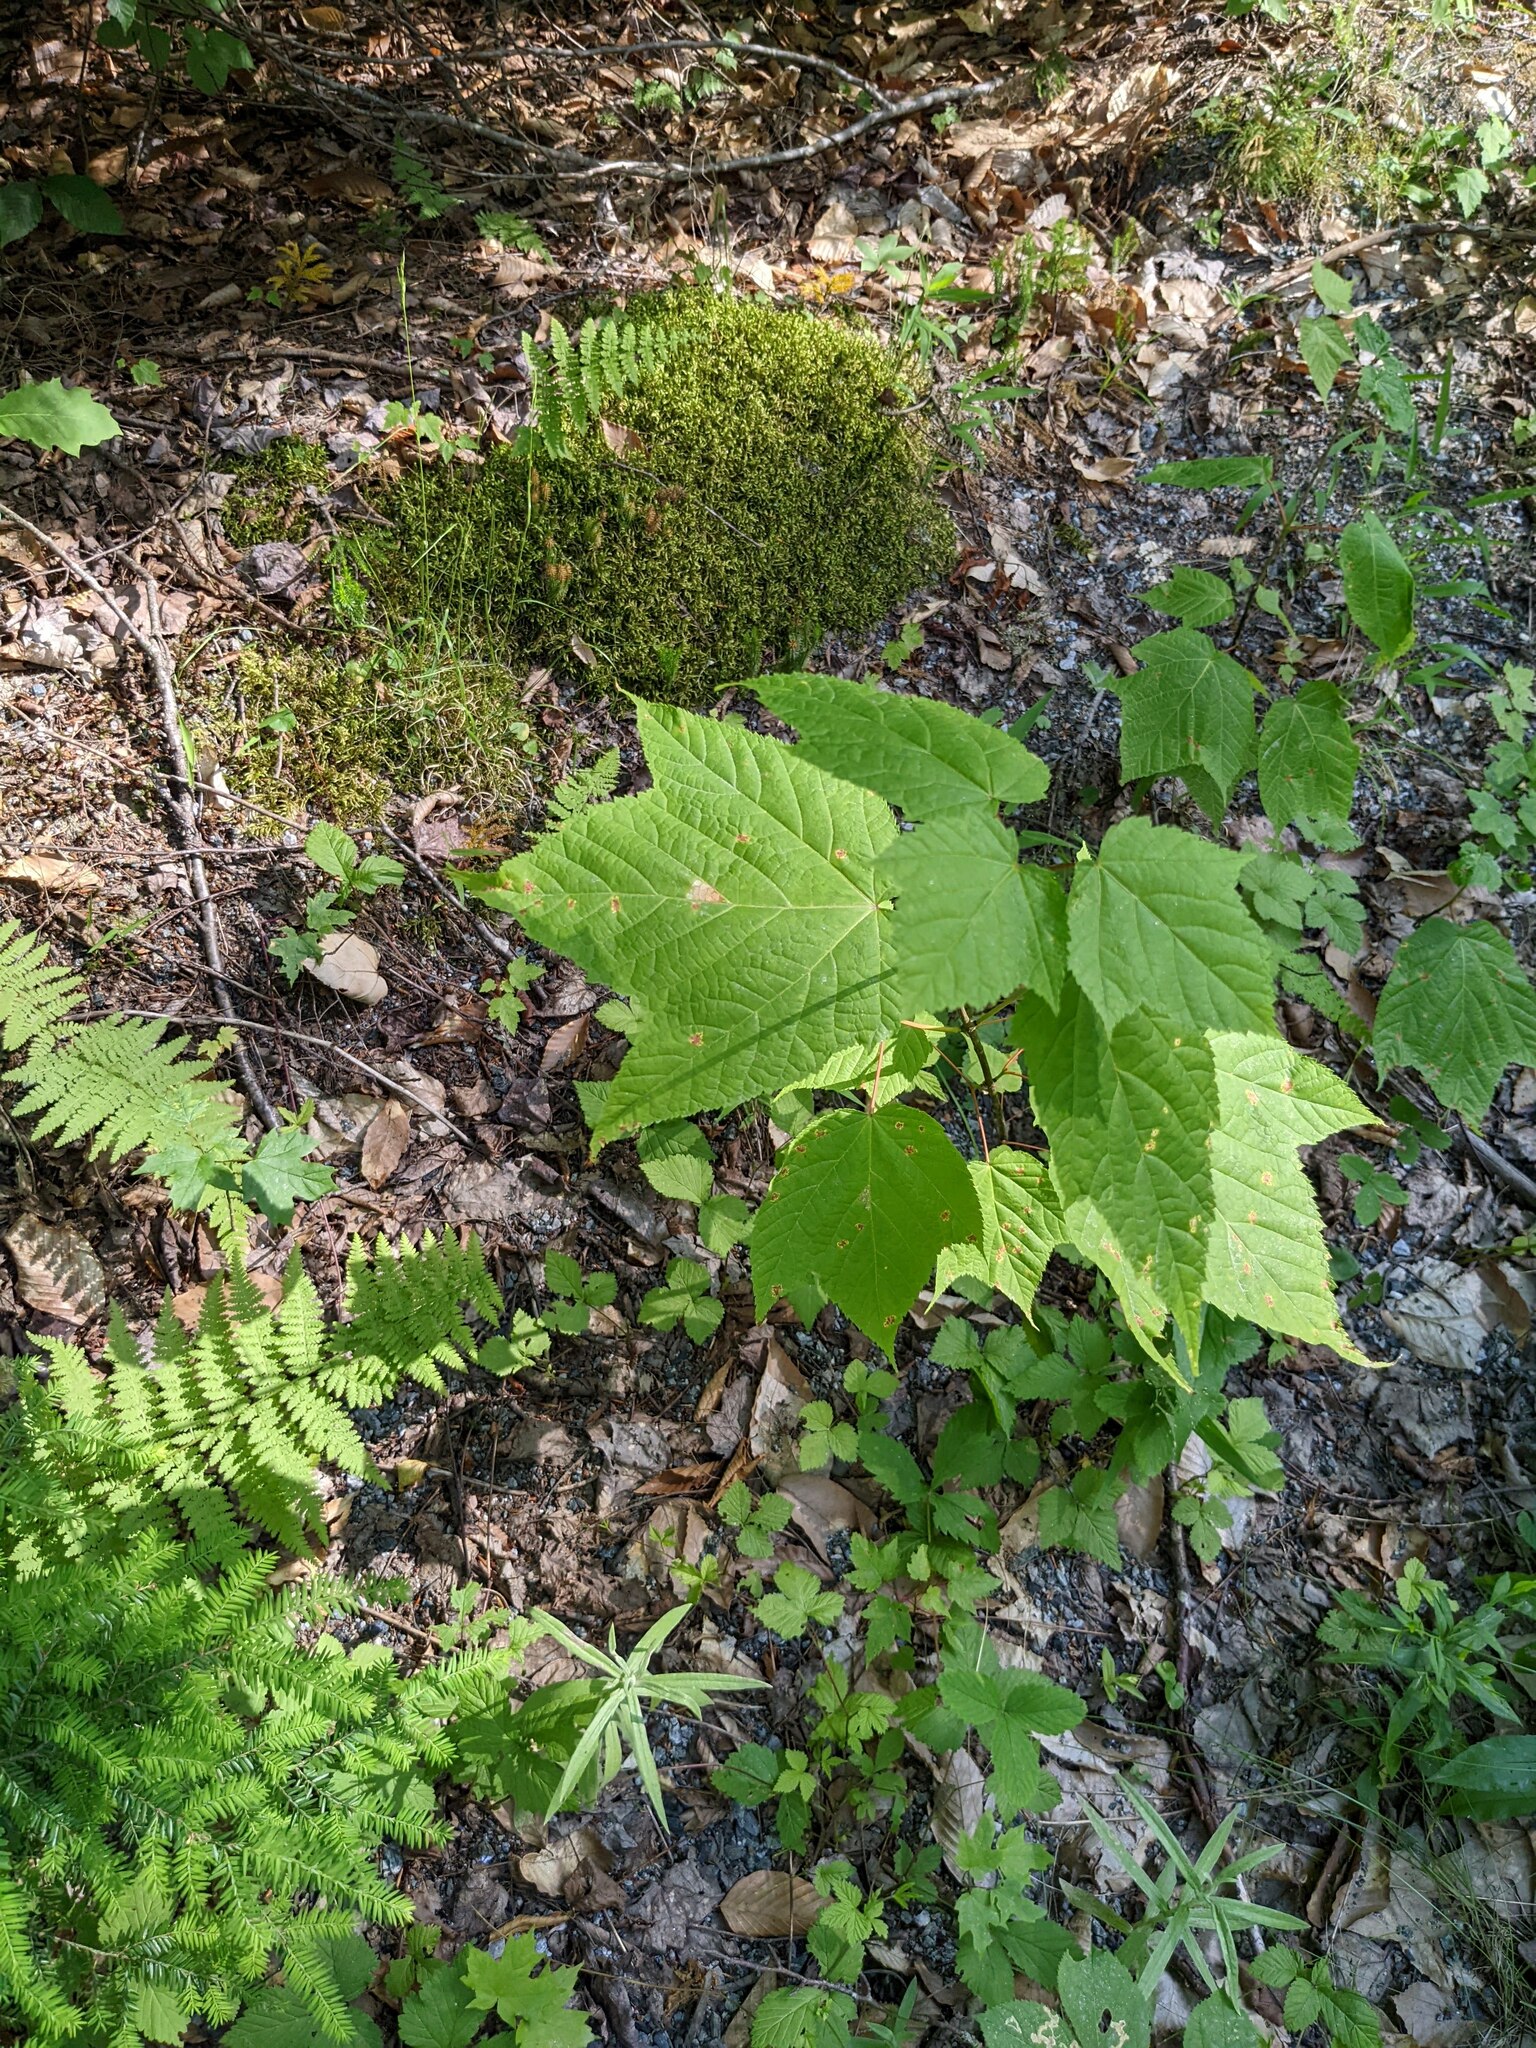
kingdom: Plantae
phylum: Tracheophyta
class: Magnoliopsida
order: Sapindales
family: Sapindaceae
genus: Acer
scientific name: Acer pensylvanicum
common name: Moosewood
